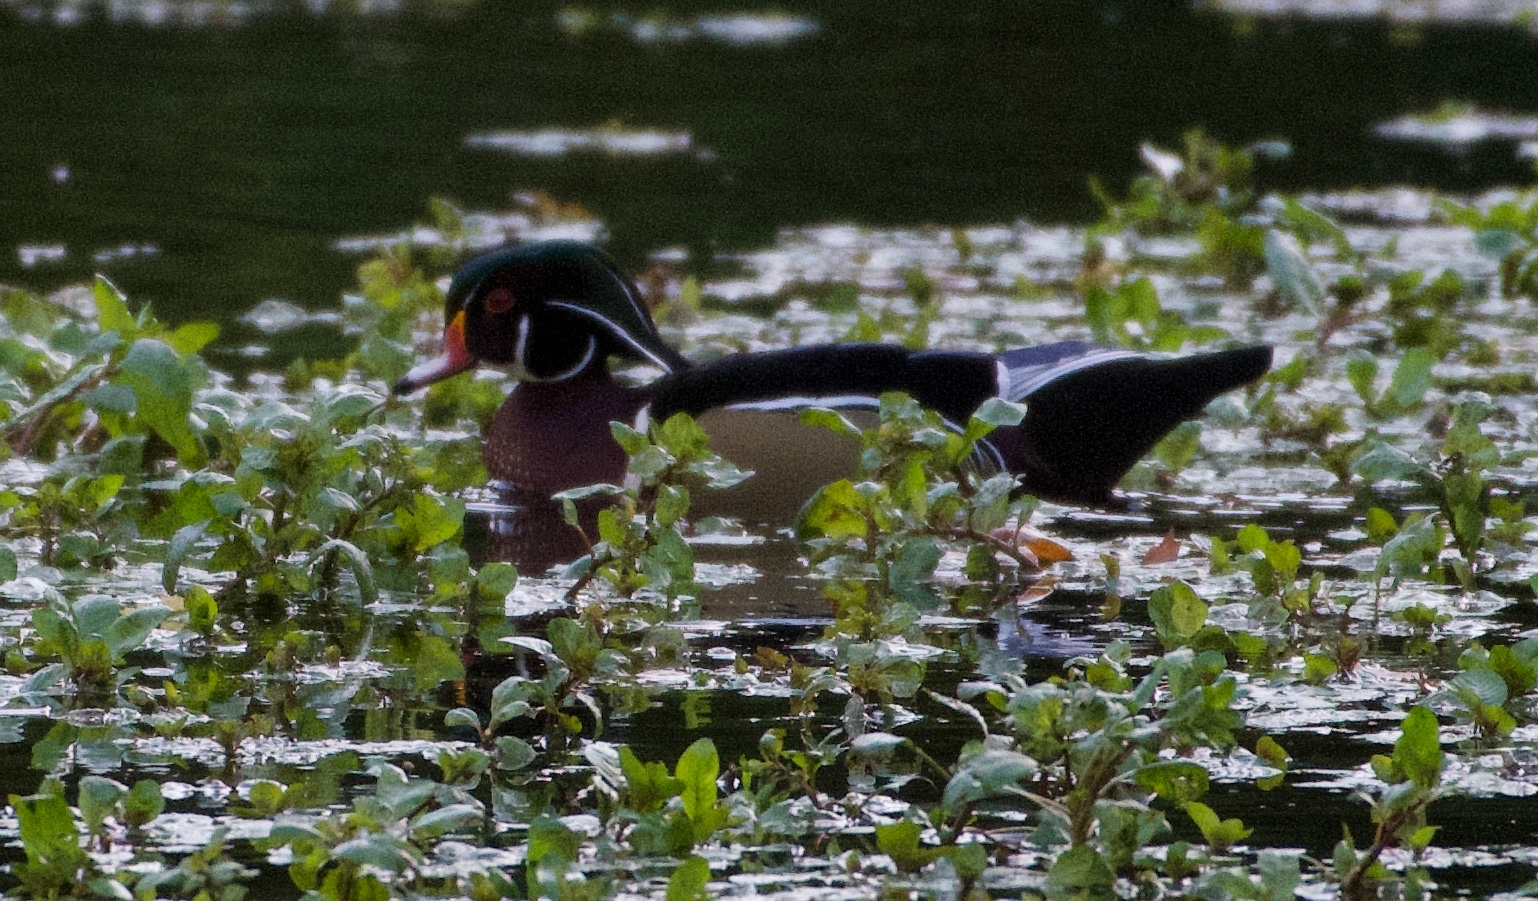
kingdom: Animalia
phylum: Chordata
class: Aves
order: Anseriformes
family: Anatidae
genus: Aix
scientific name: Aix sponsa
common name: Wood duck
